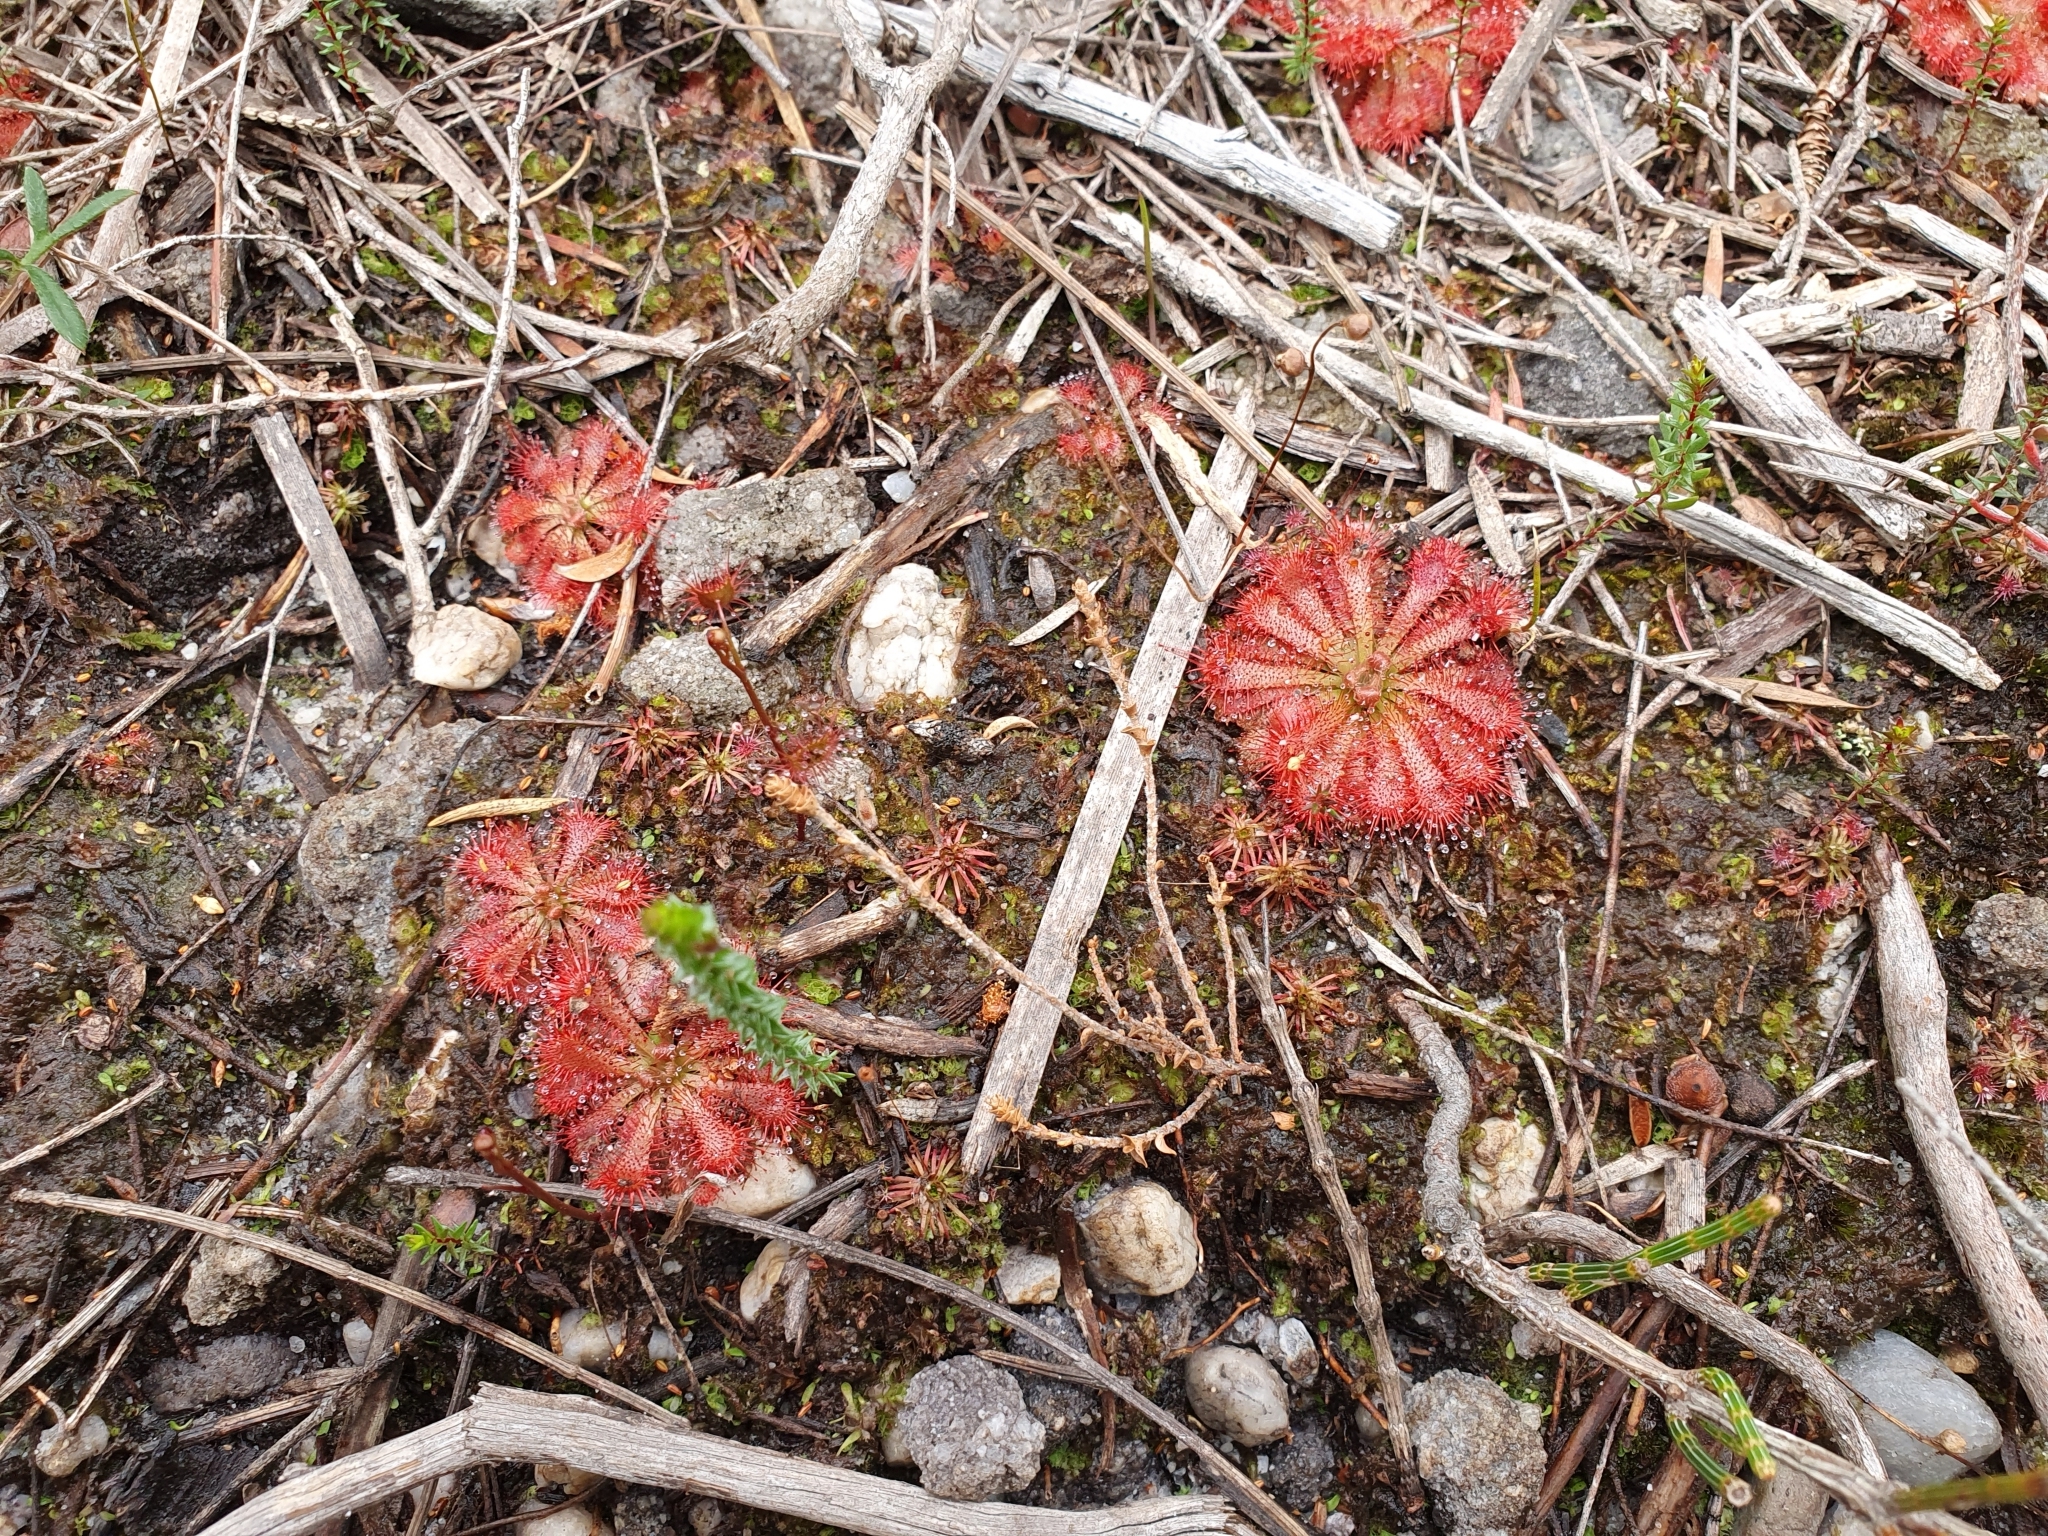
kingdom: Plantae
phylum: Tracheophyta
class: Magnoliopsida
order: Caryophyllales
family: Droseraceae
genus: Drosera
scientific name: Drosera spatulata
